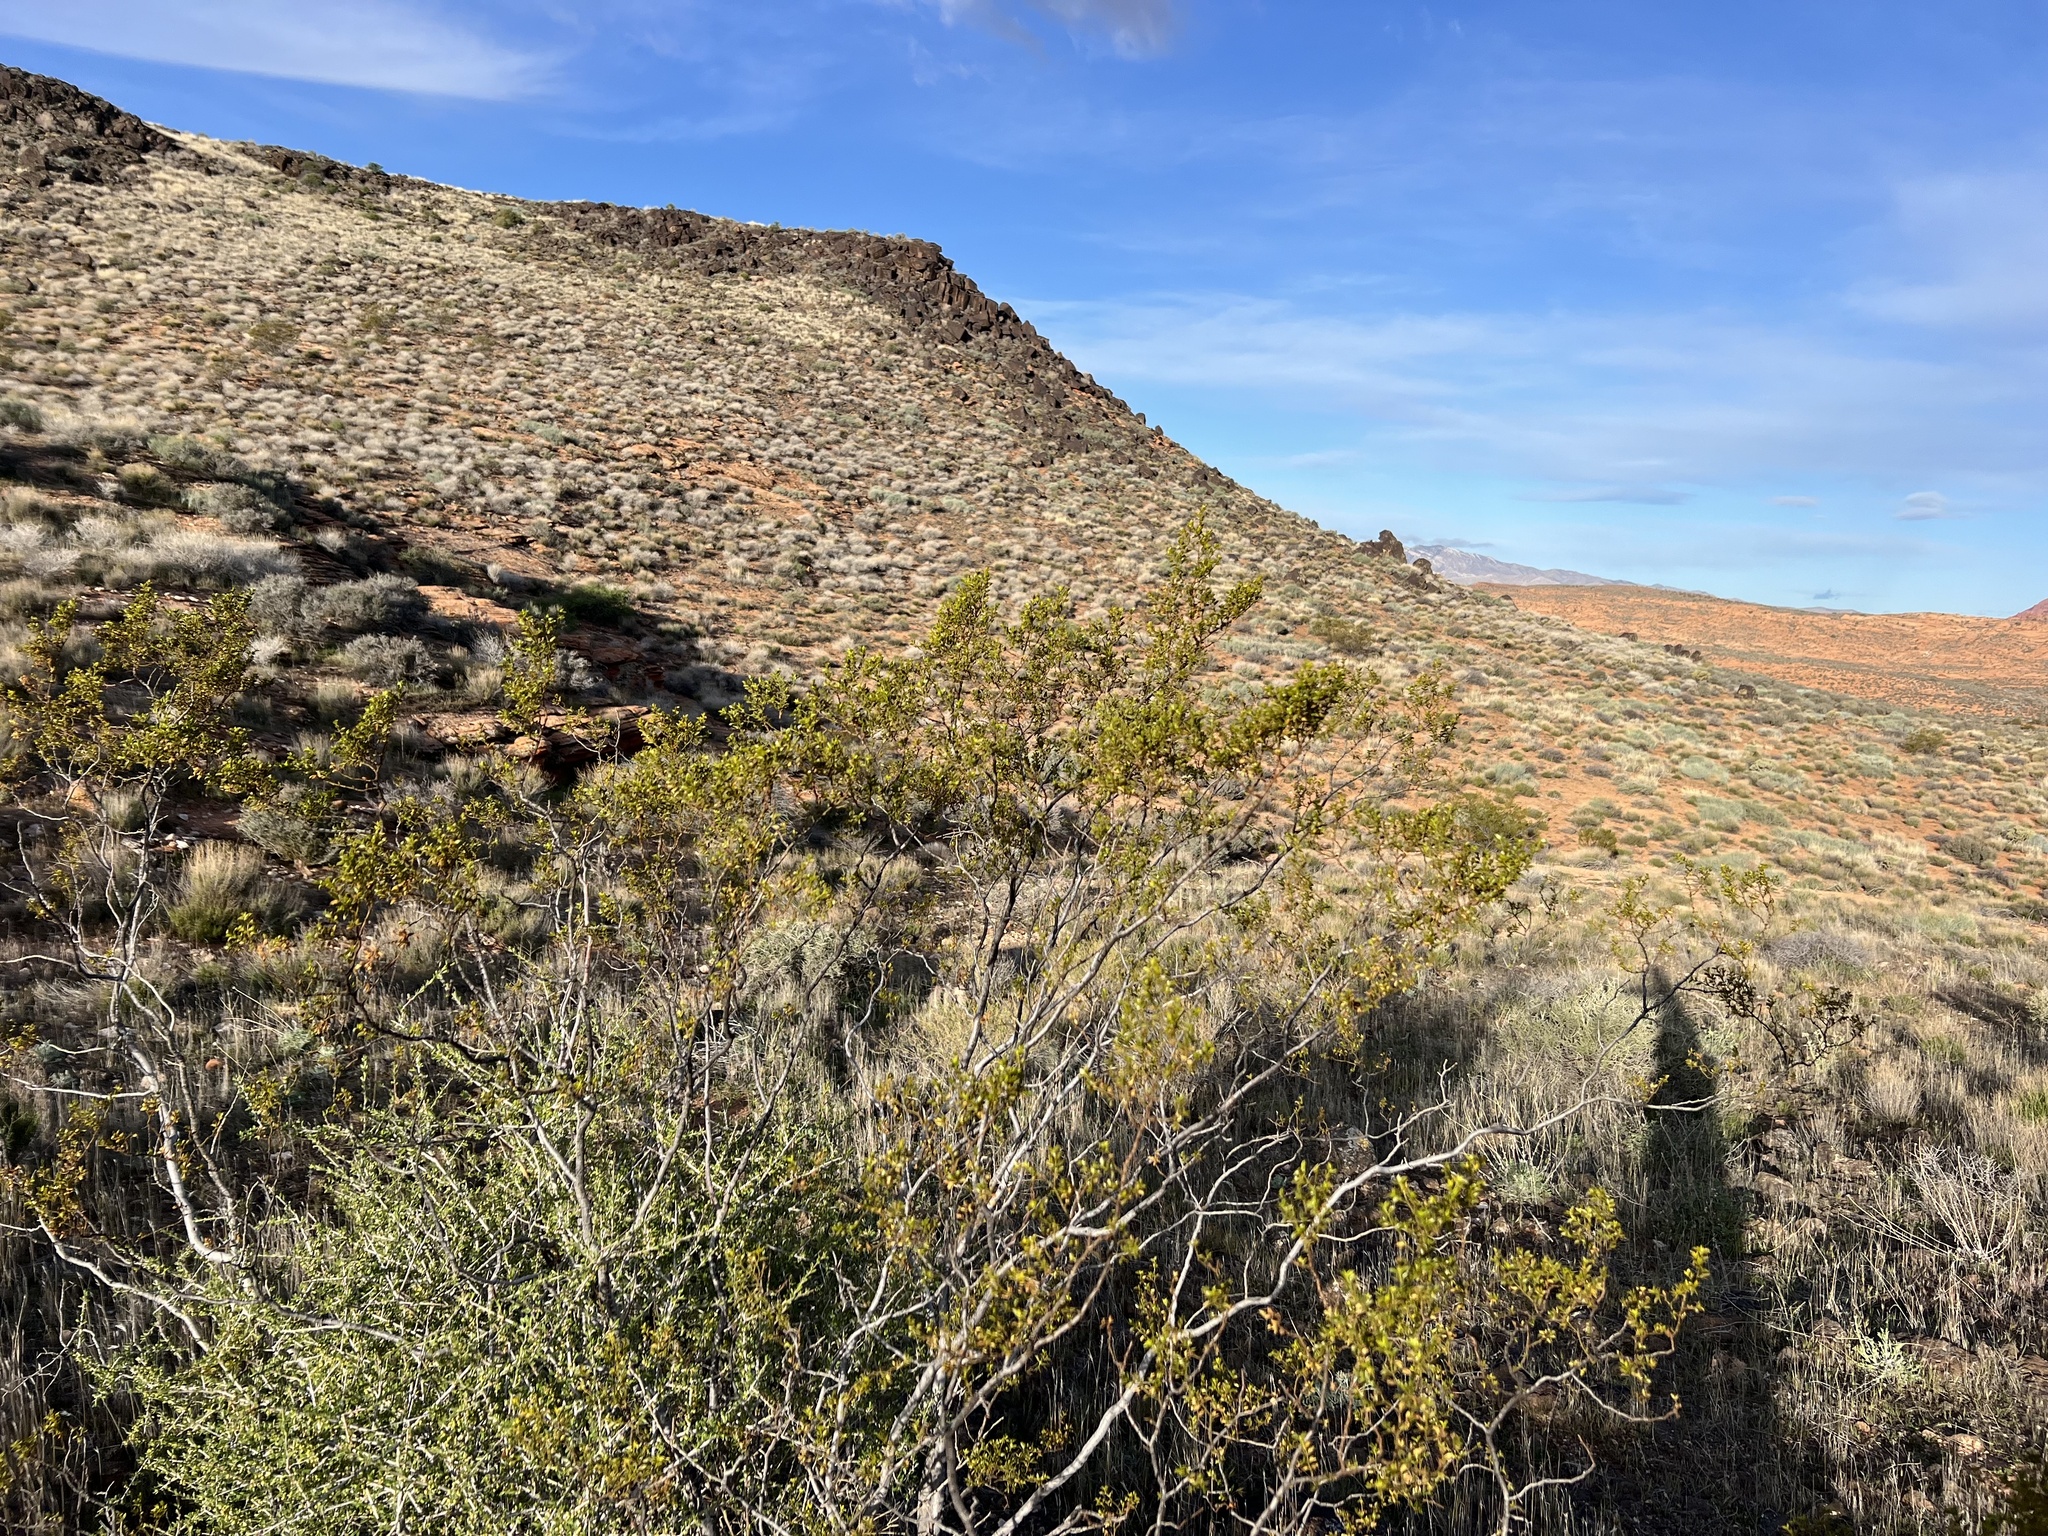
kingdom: Plantae
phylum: Tracheophyta
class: Magnoliopsida
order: Zygophyllales
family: Zygophyllaceae
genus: Larrea
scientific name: Larrea tridentata
